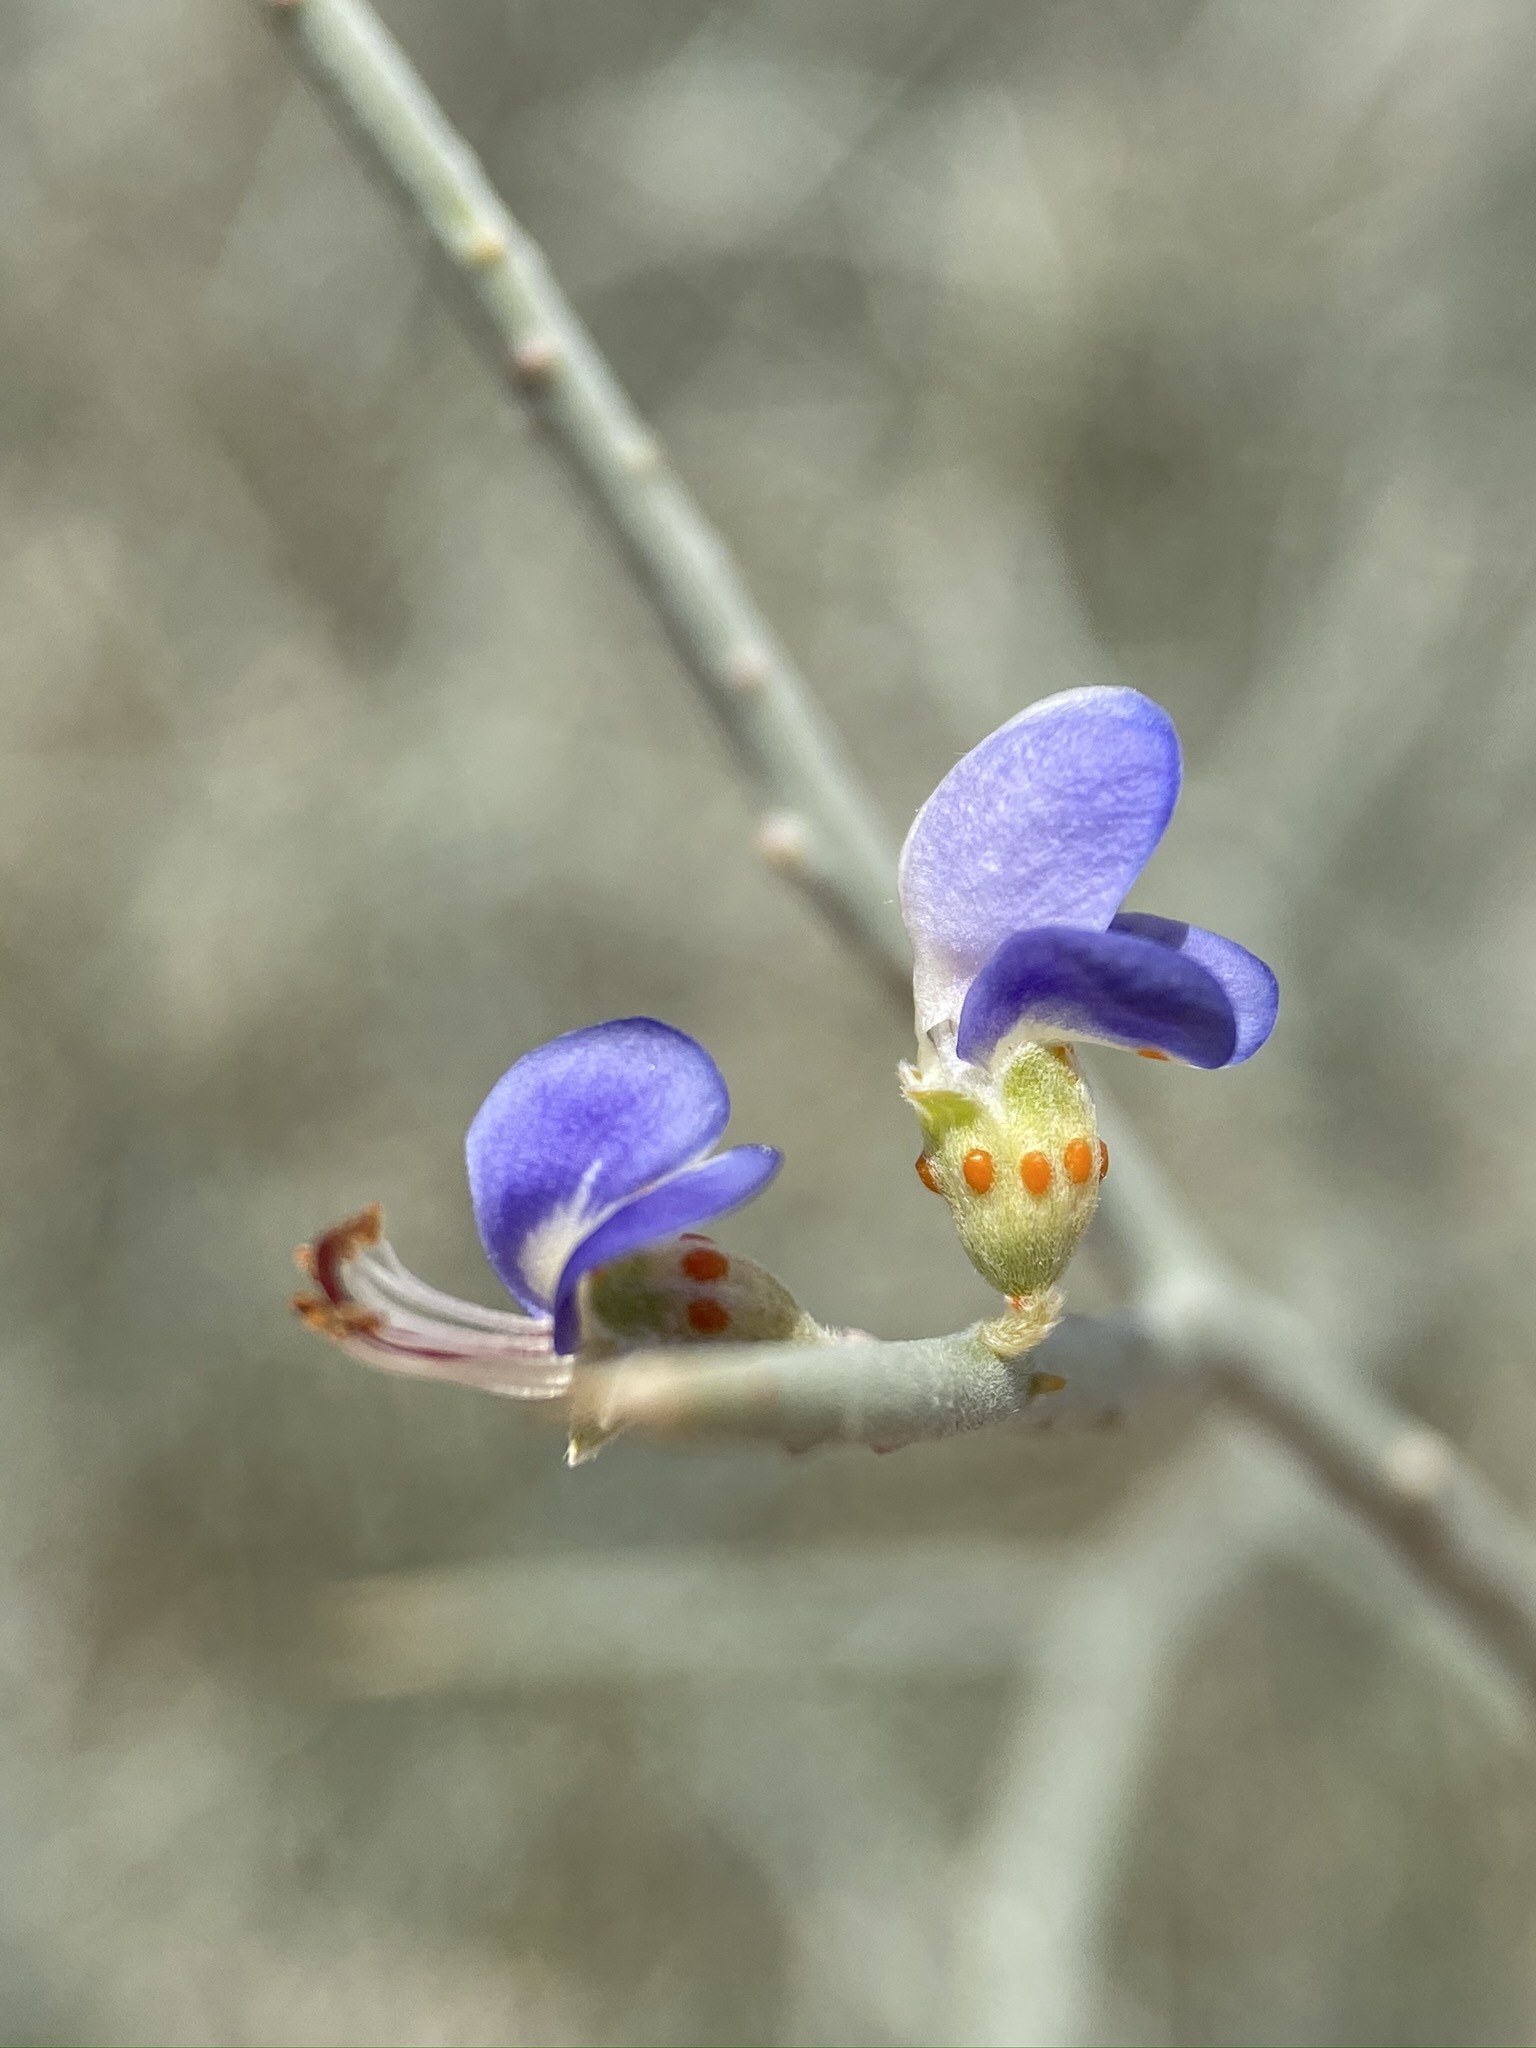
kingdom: Plantae
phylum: Tracheophyta
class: Magnoliopsida
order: Fabales
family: Fabaceae
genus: Psorothamnus
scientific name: Psorothamnus spinosus
